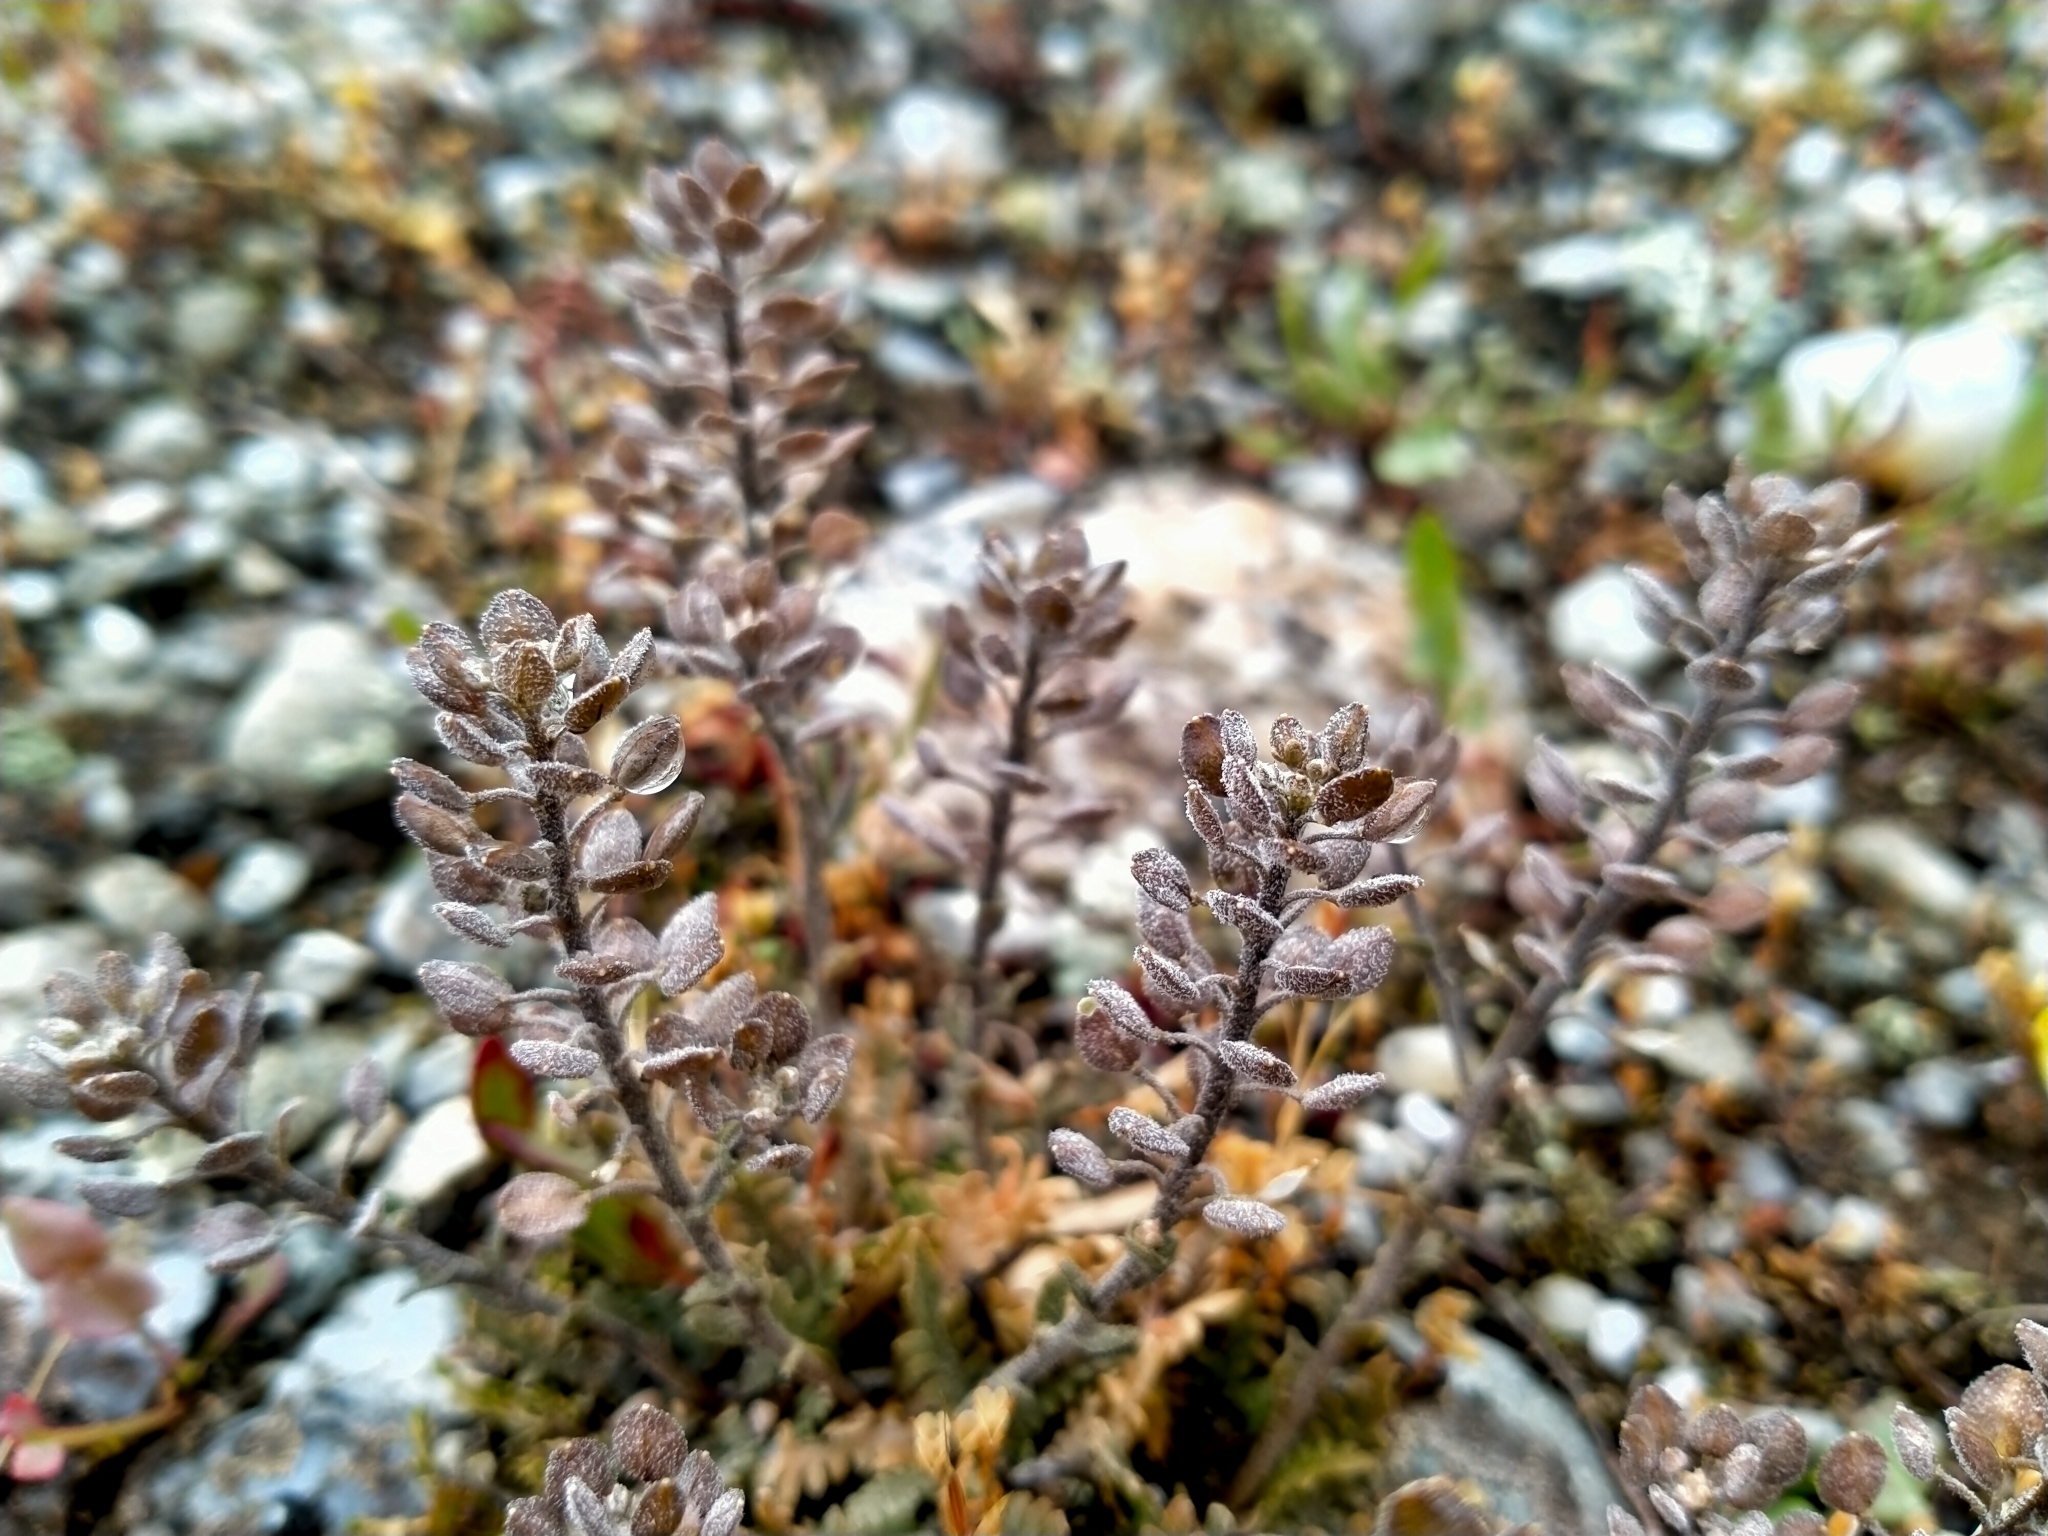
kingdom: Plantae
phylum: Tracheophyta
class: Magnoliopsida
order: Brassicales
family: Brassicaceae
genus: Lepidium
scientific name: Lepidium sisymbrioides
